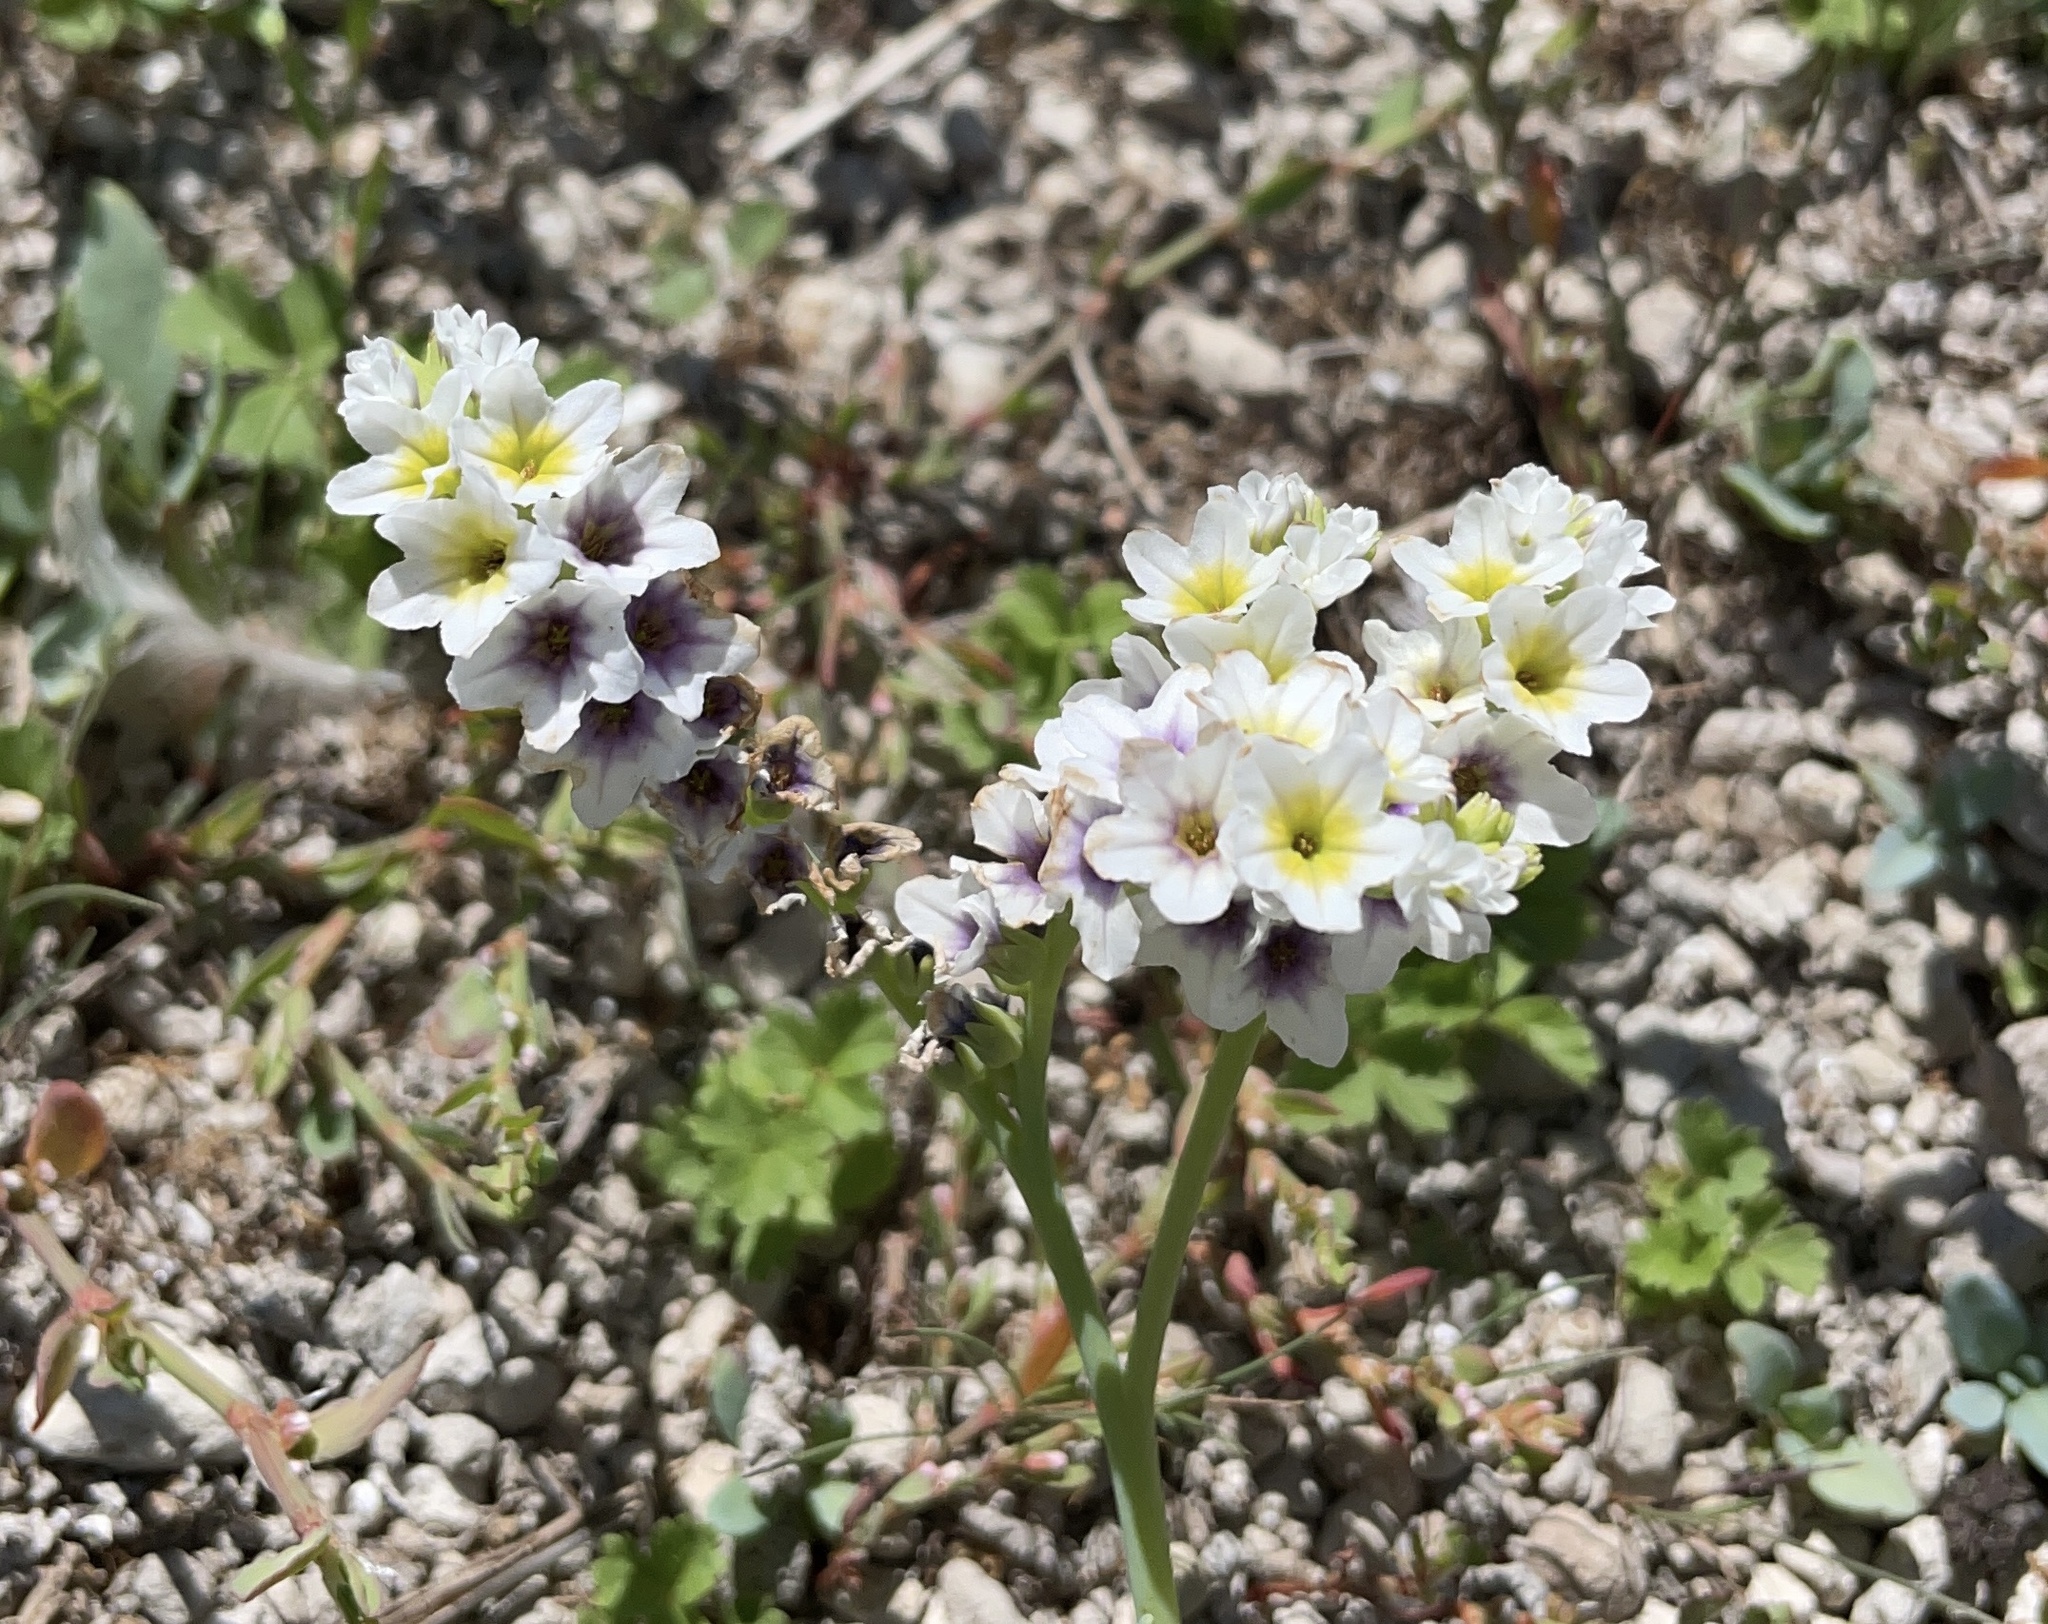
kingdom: Plantae
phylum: Tracheophyta
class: Magnoliopsida
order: Boraginales
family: Heliotropiaceae
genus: Heliotropium
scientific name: Heliotropium curassavicum
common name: Seaside heliotrope
